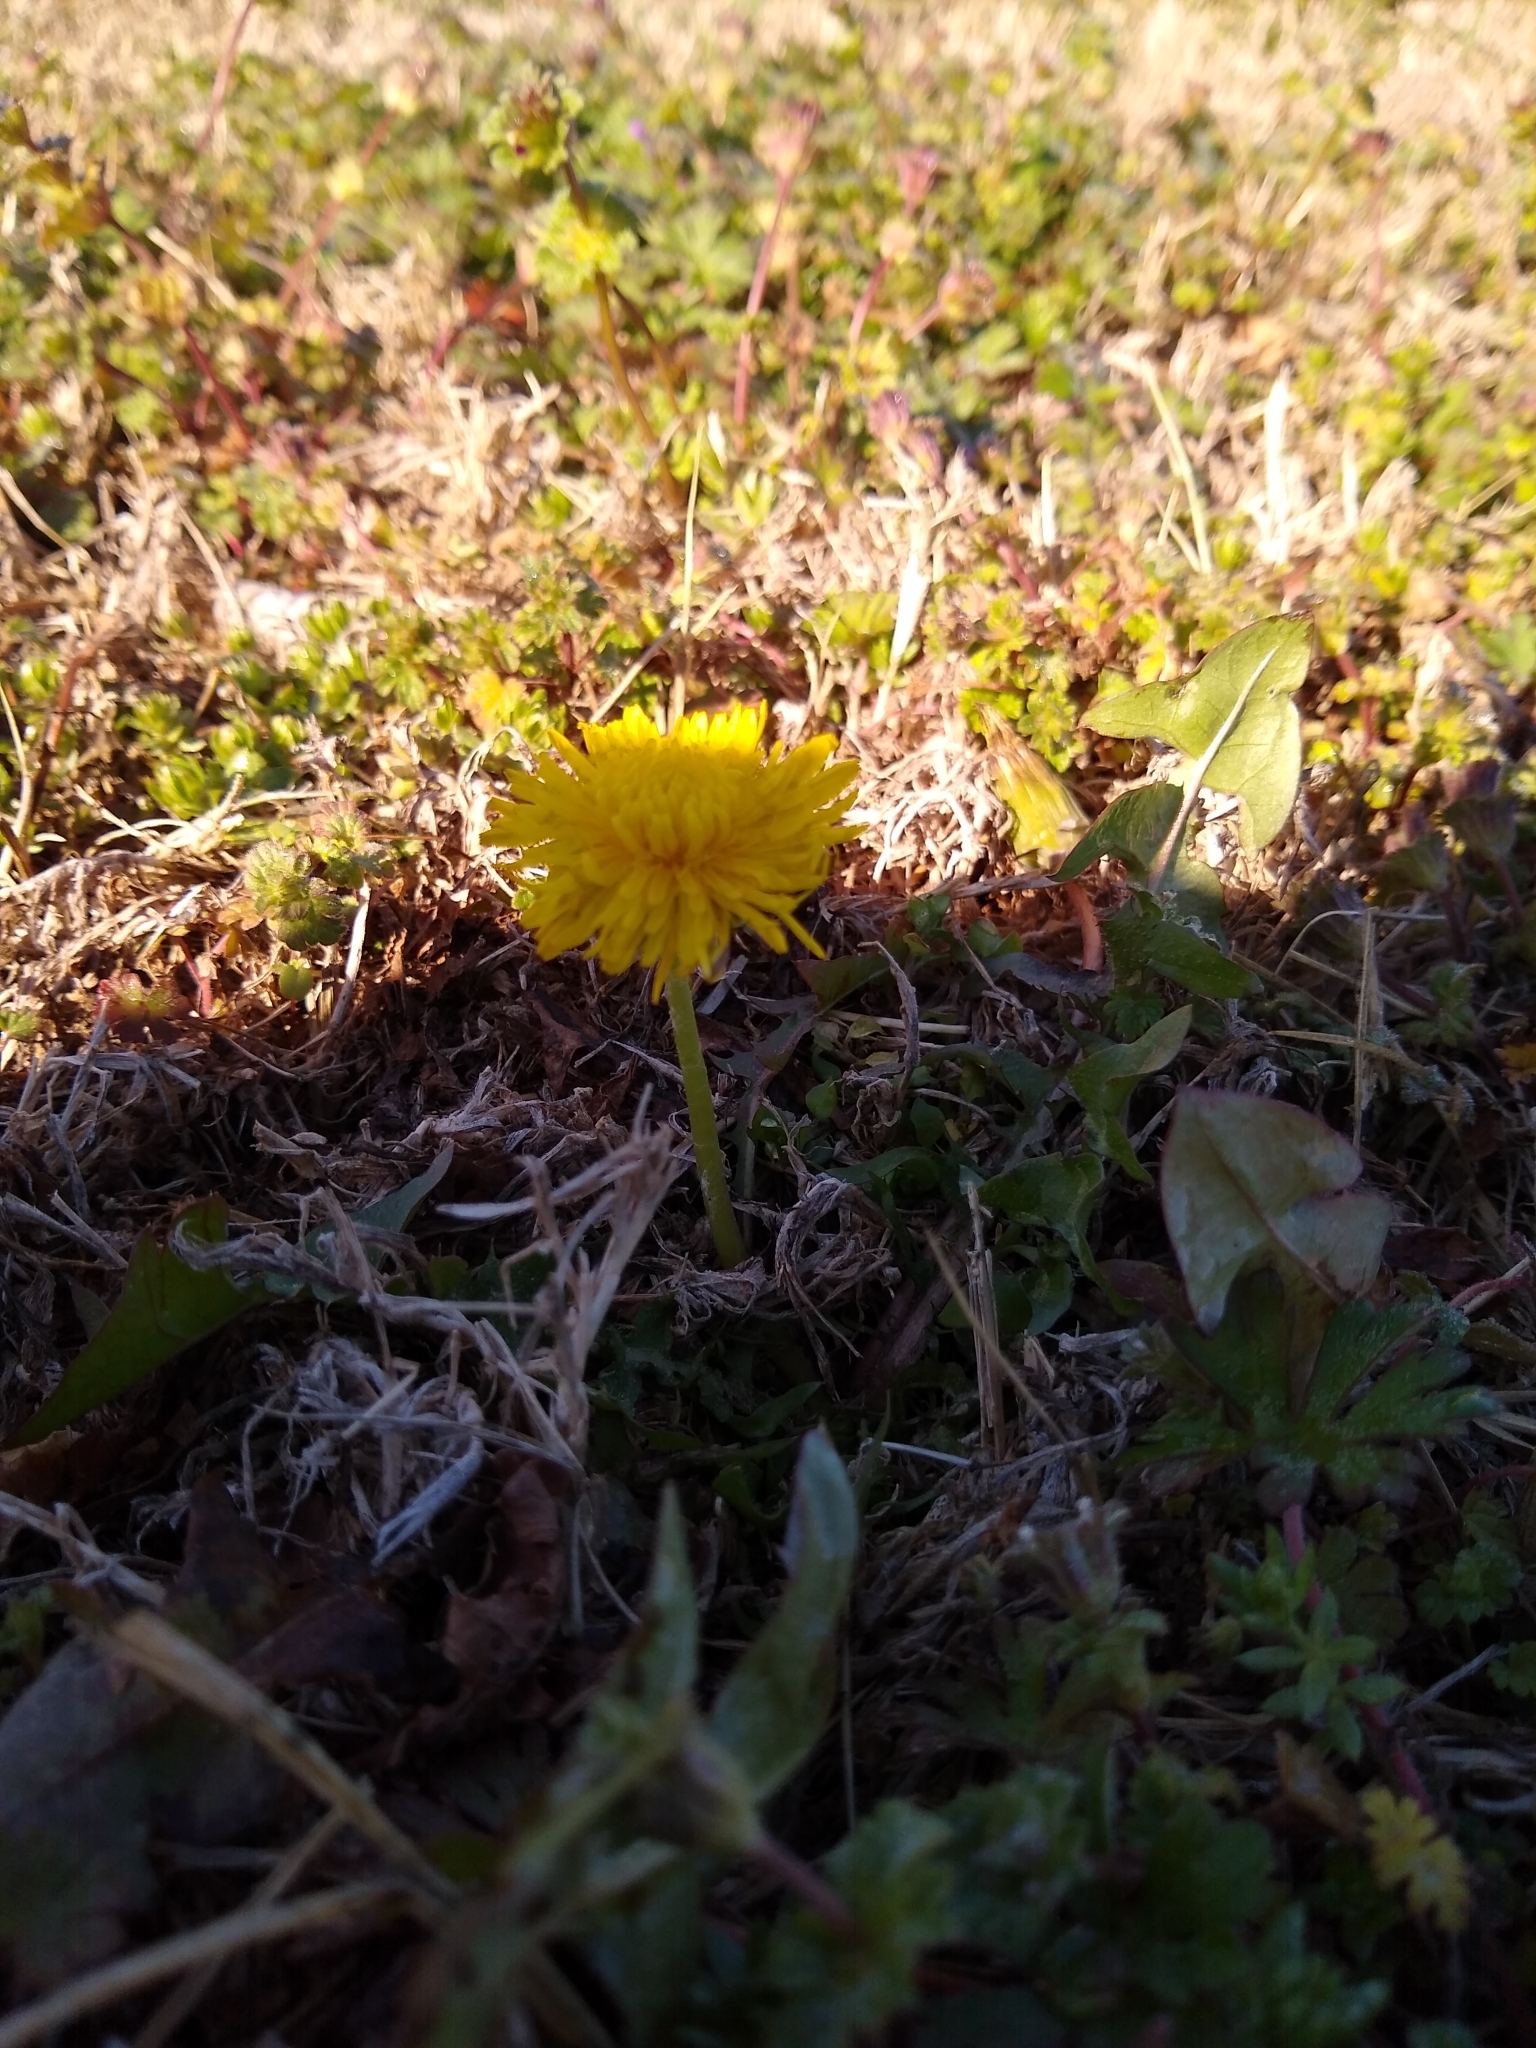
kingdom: Plantae
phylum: Tracheophyta
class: Magnoliopsida
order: Asterales
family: Asteraceae
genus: Taraxacum
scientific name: Taraxacum officinale
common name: Common dandelion
